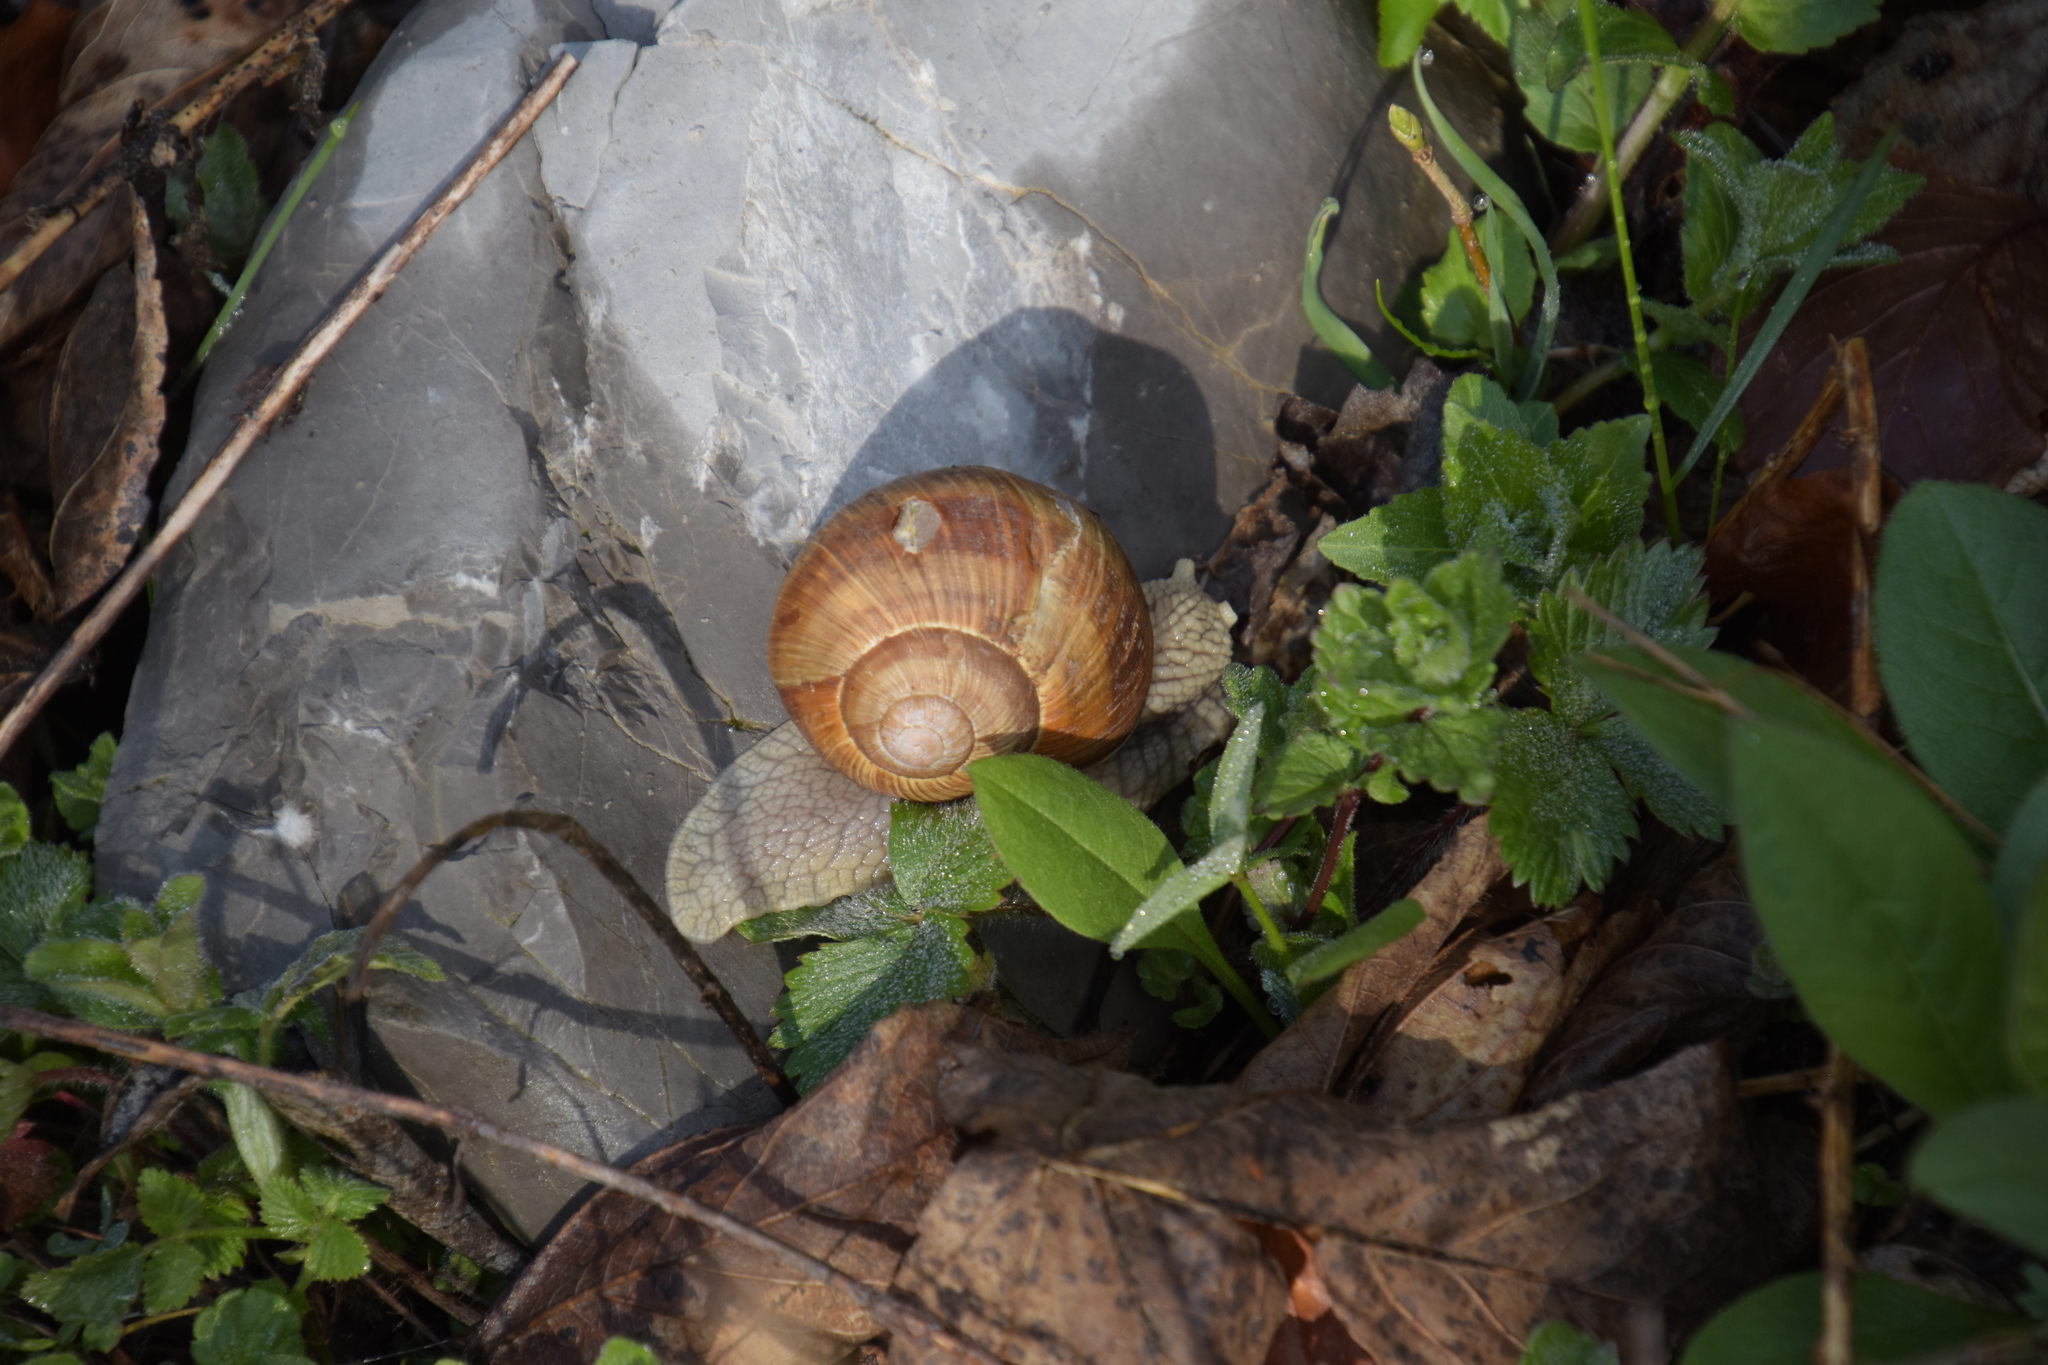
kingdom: Animalia
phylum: Mollusca
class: Gastropoda
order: Stylommatophora
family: Helicidae
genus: Helix
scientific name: Helix pomatia
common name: Roman snail
